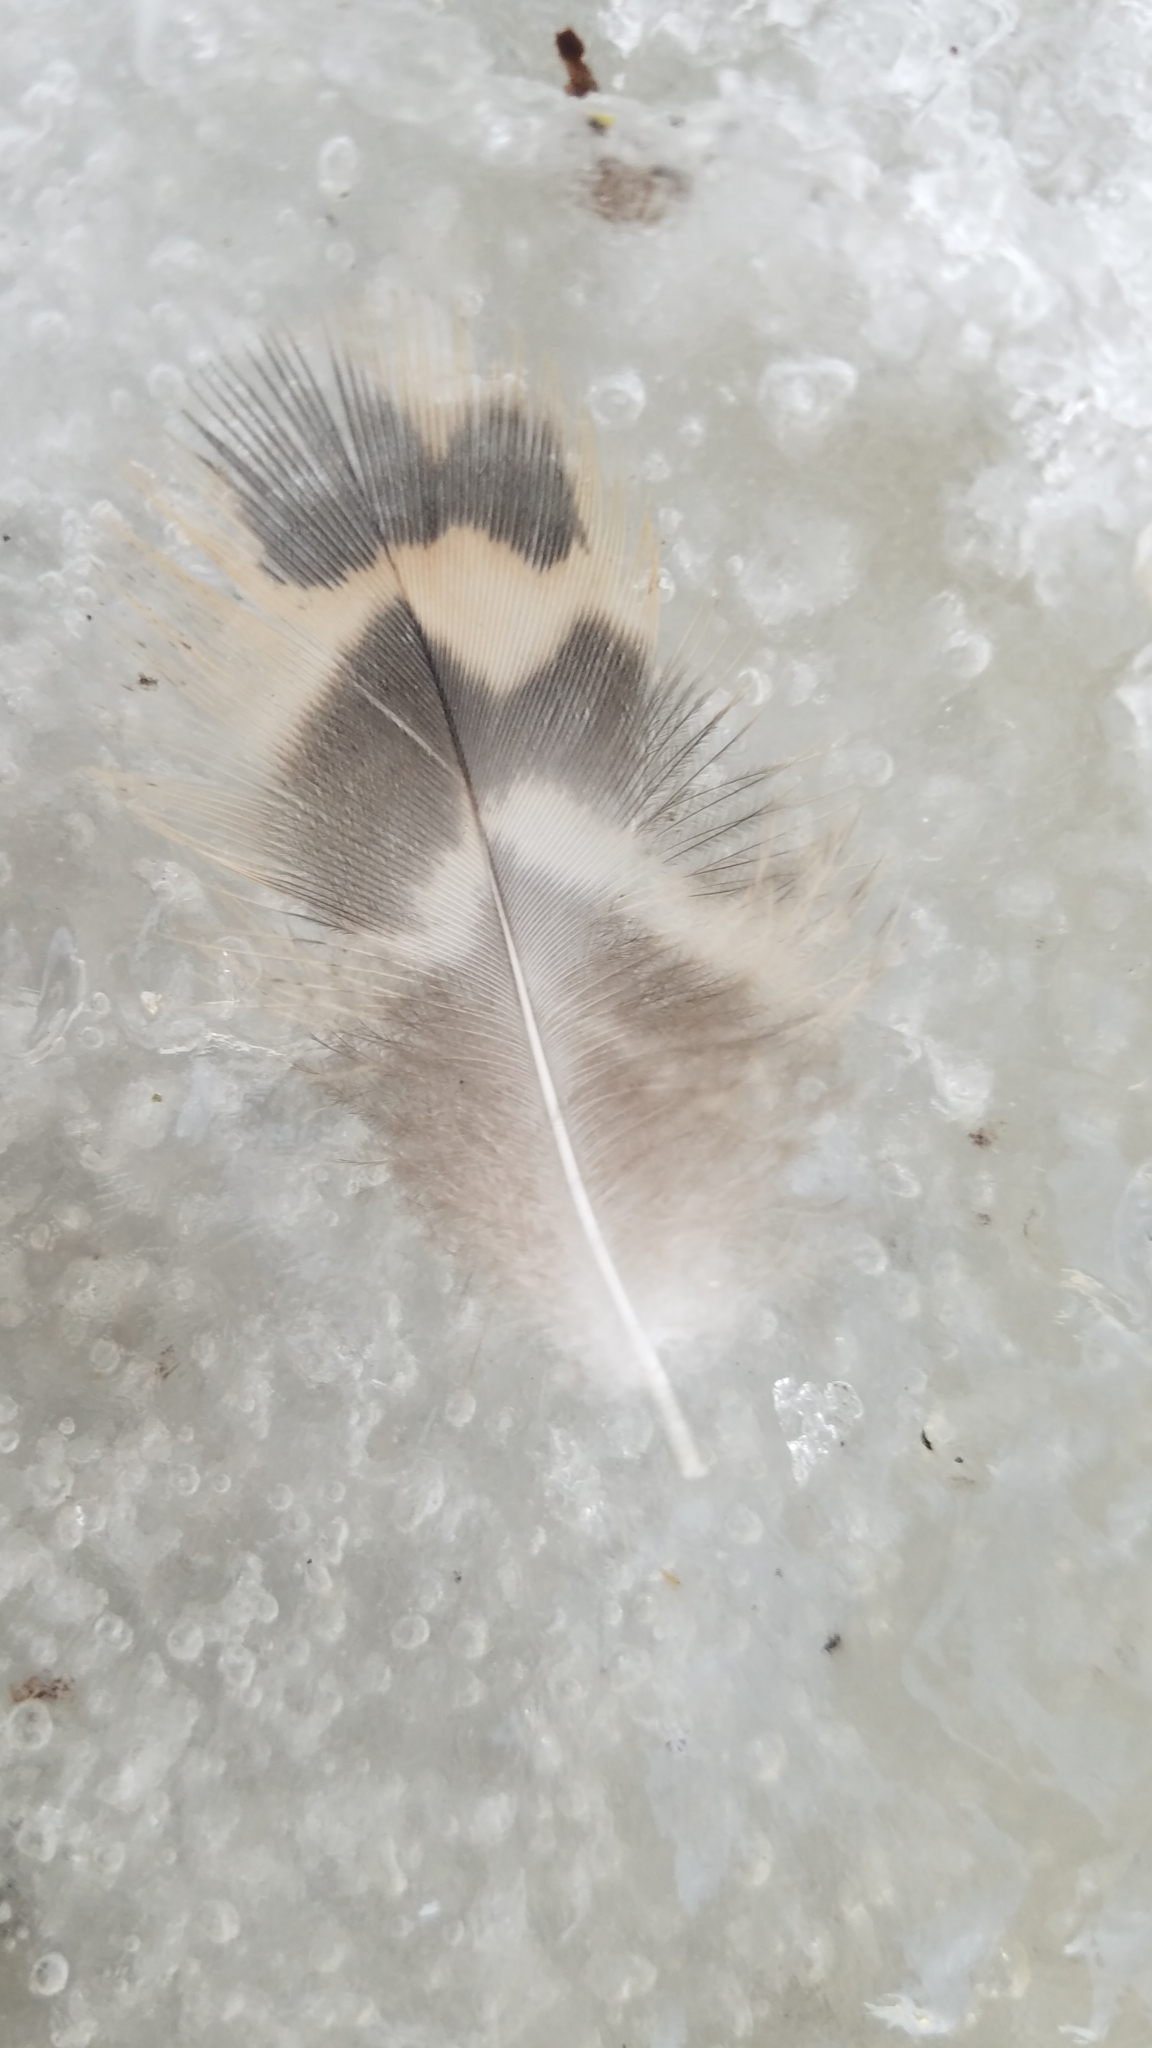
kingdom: Animalia
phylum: Chordata
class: Aves
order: Anseriformes
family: Anatidae
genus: Anas
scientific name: Anas platyrhynchos
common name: Mallard
